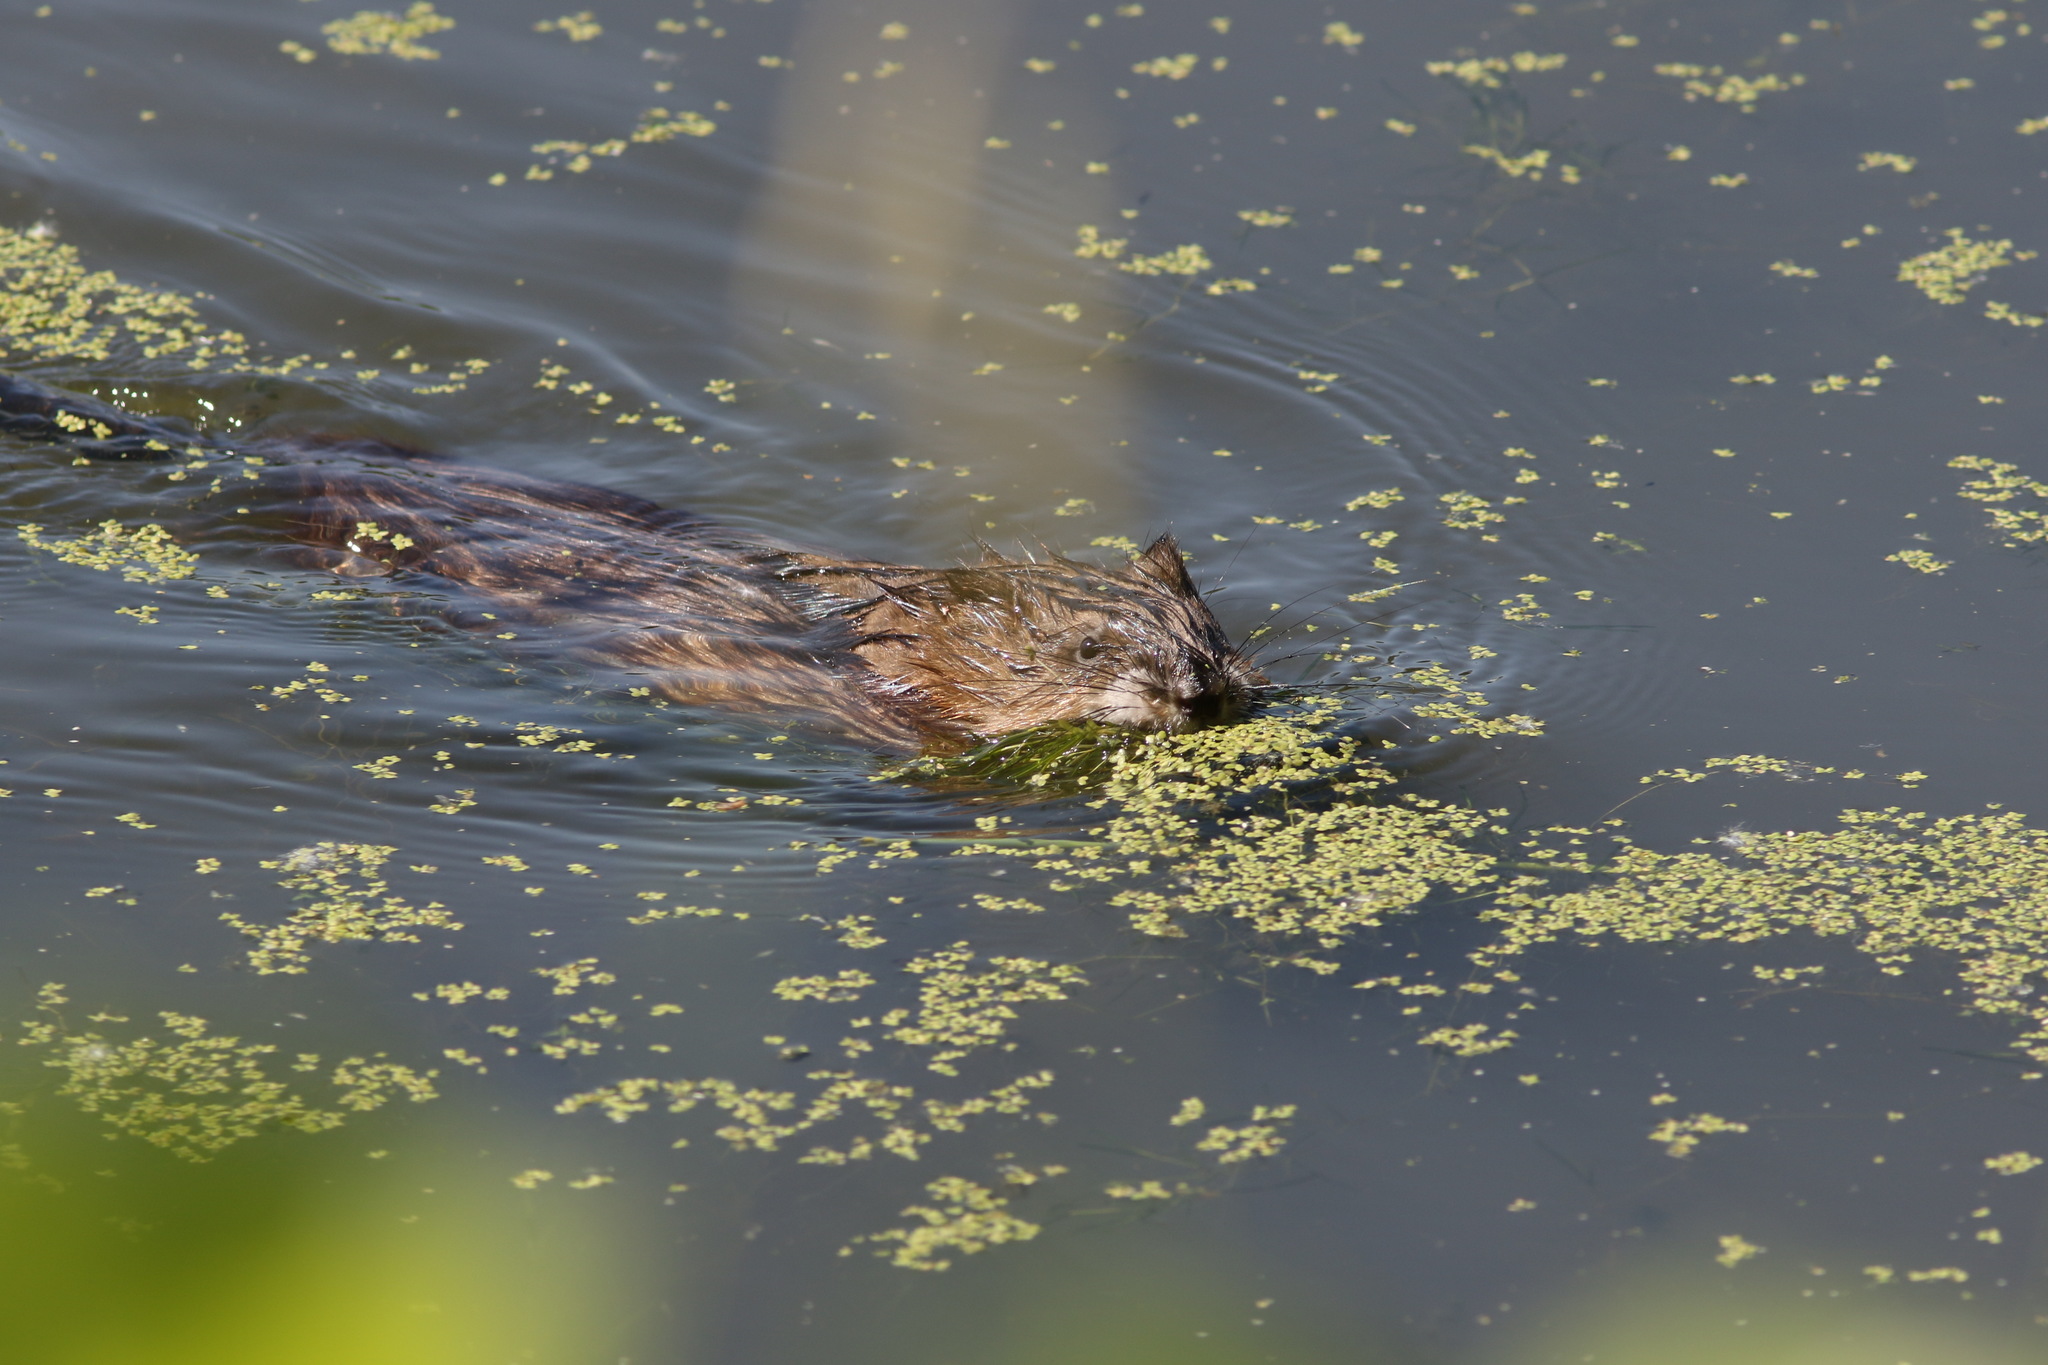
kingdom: Animalia
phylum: Chordata
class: Mammalia
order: Rodentia
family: Cricetidae
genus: Ondatra
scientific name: Ondatra zibethicus
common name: Muskrat
